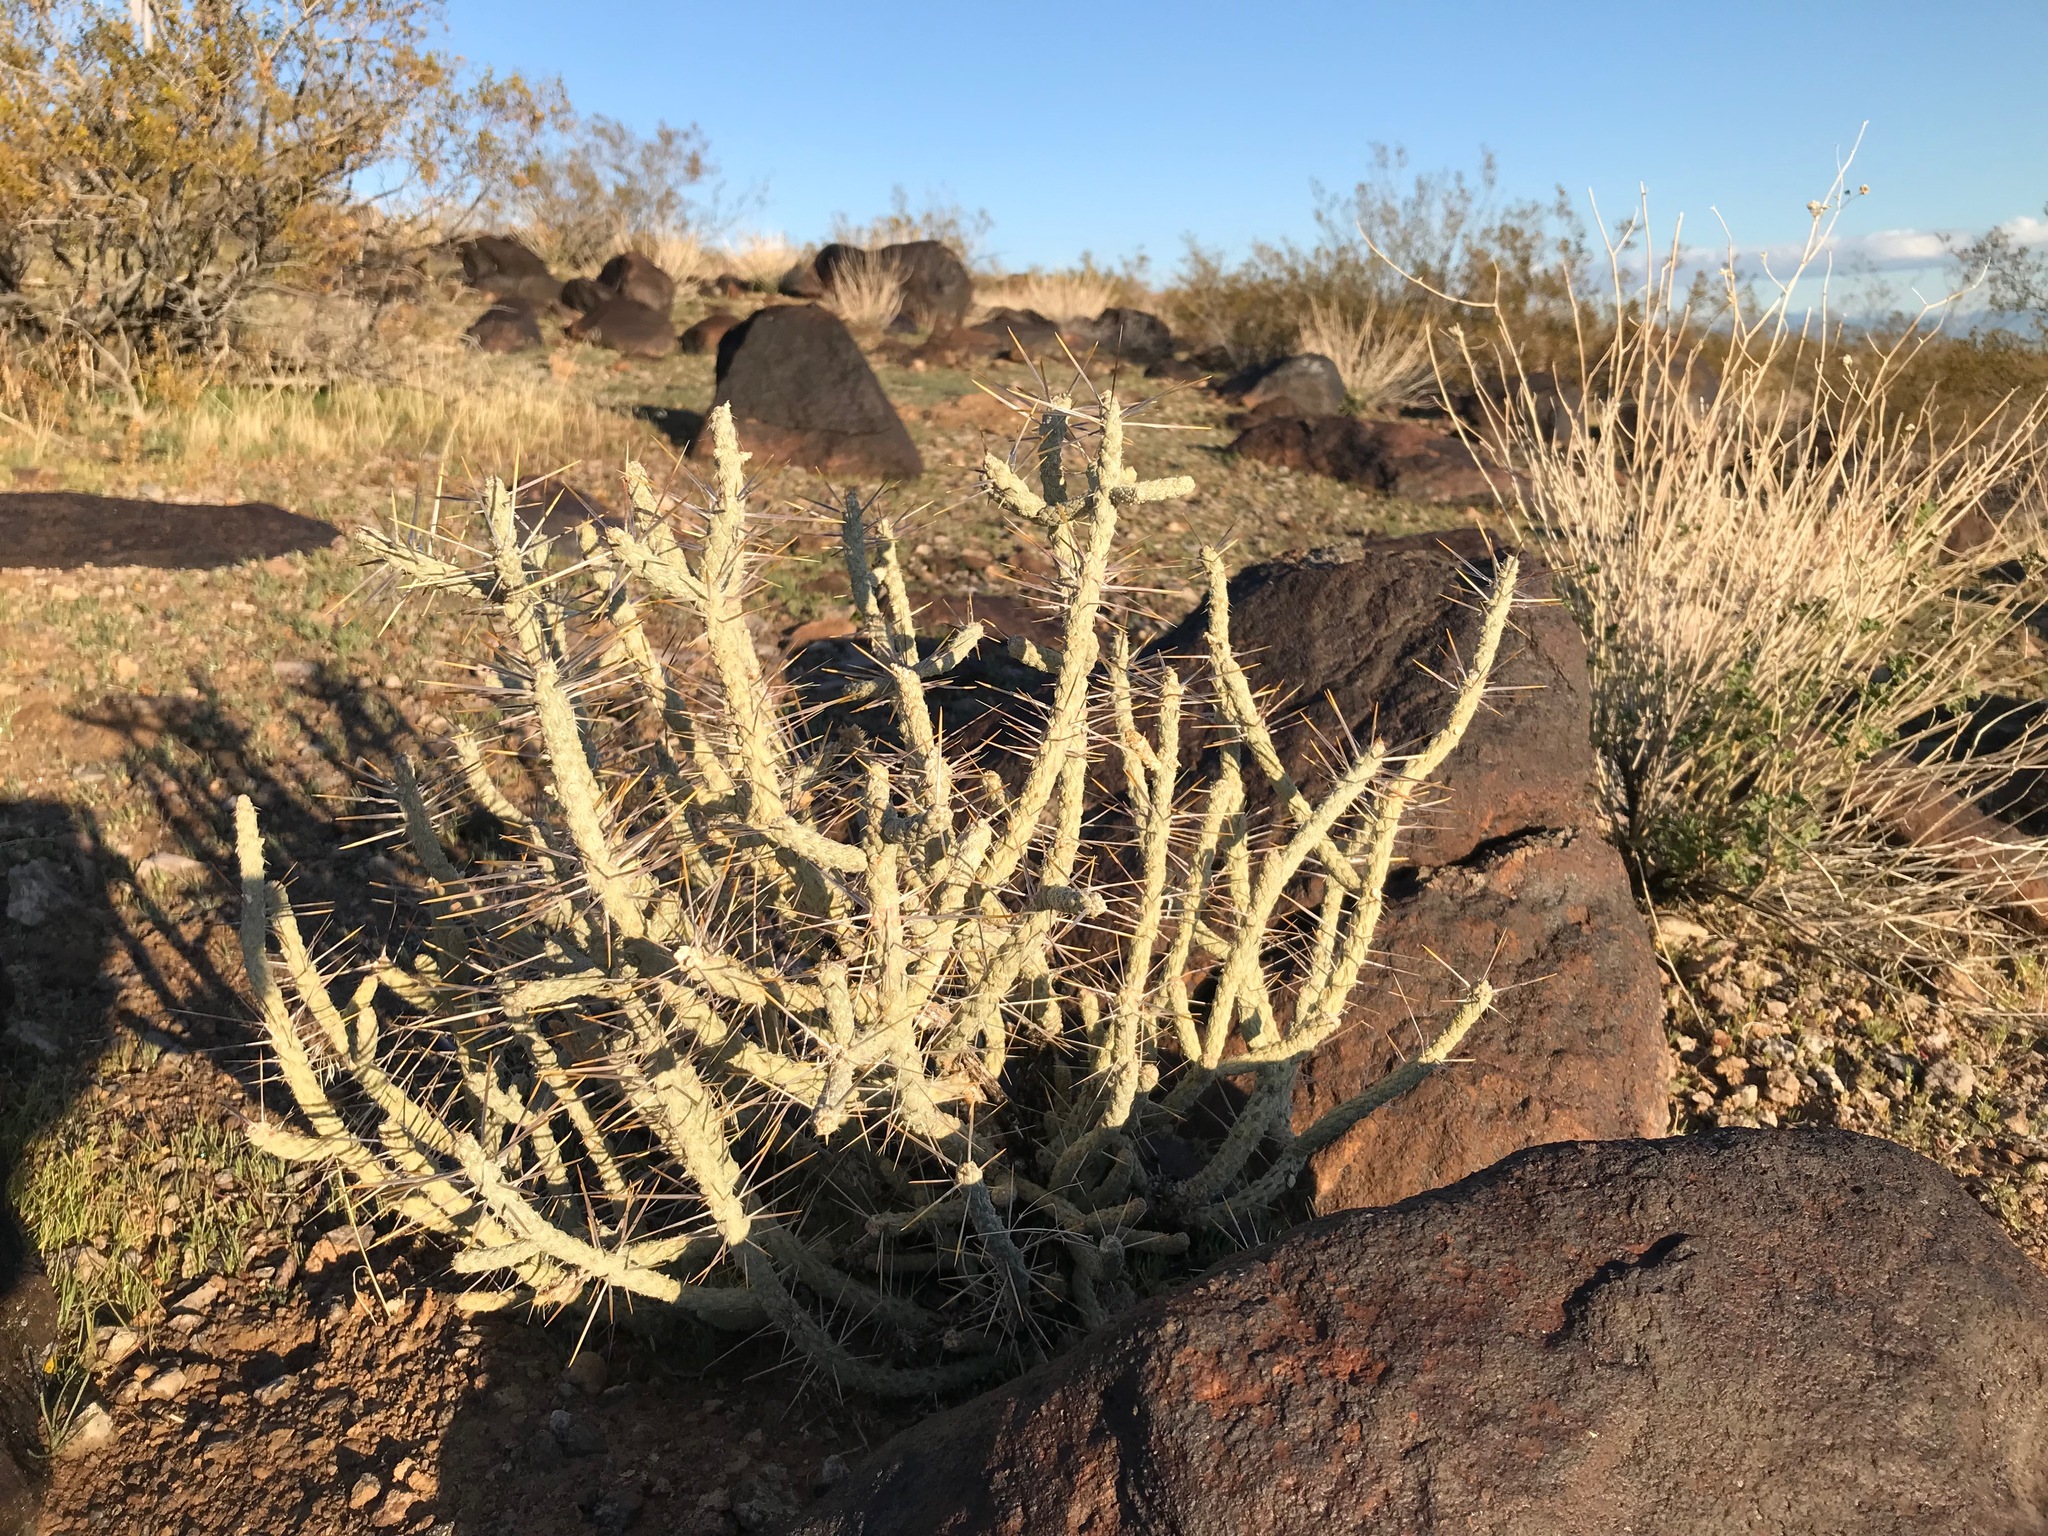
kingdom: Plantae
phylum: Tracheophyta
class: Magnoliopsida
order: Caryophyllales
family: Cactaceae
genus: Cylindropuntia
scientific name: Cylindropuntia ramosissima
